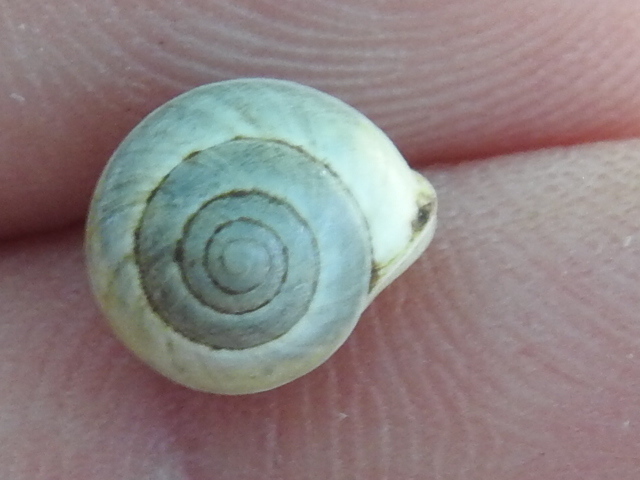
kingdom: Animalia
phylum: Mollusca
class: Gastropoda
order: Cycloneritida
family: Helicinidae
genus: Helicina
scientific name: Helicina orbiculata
